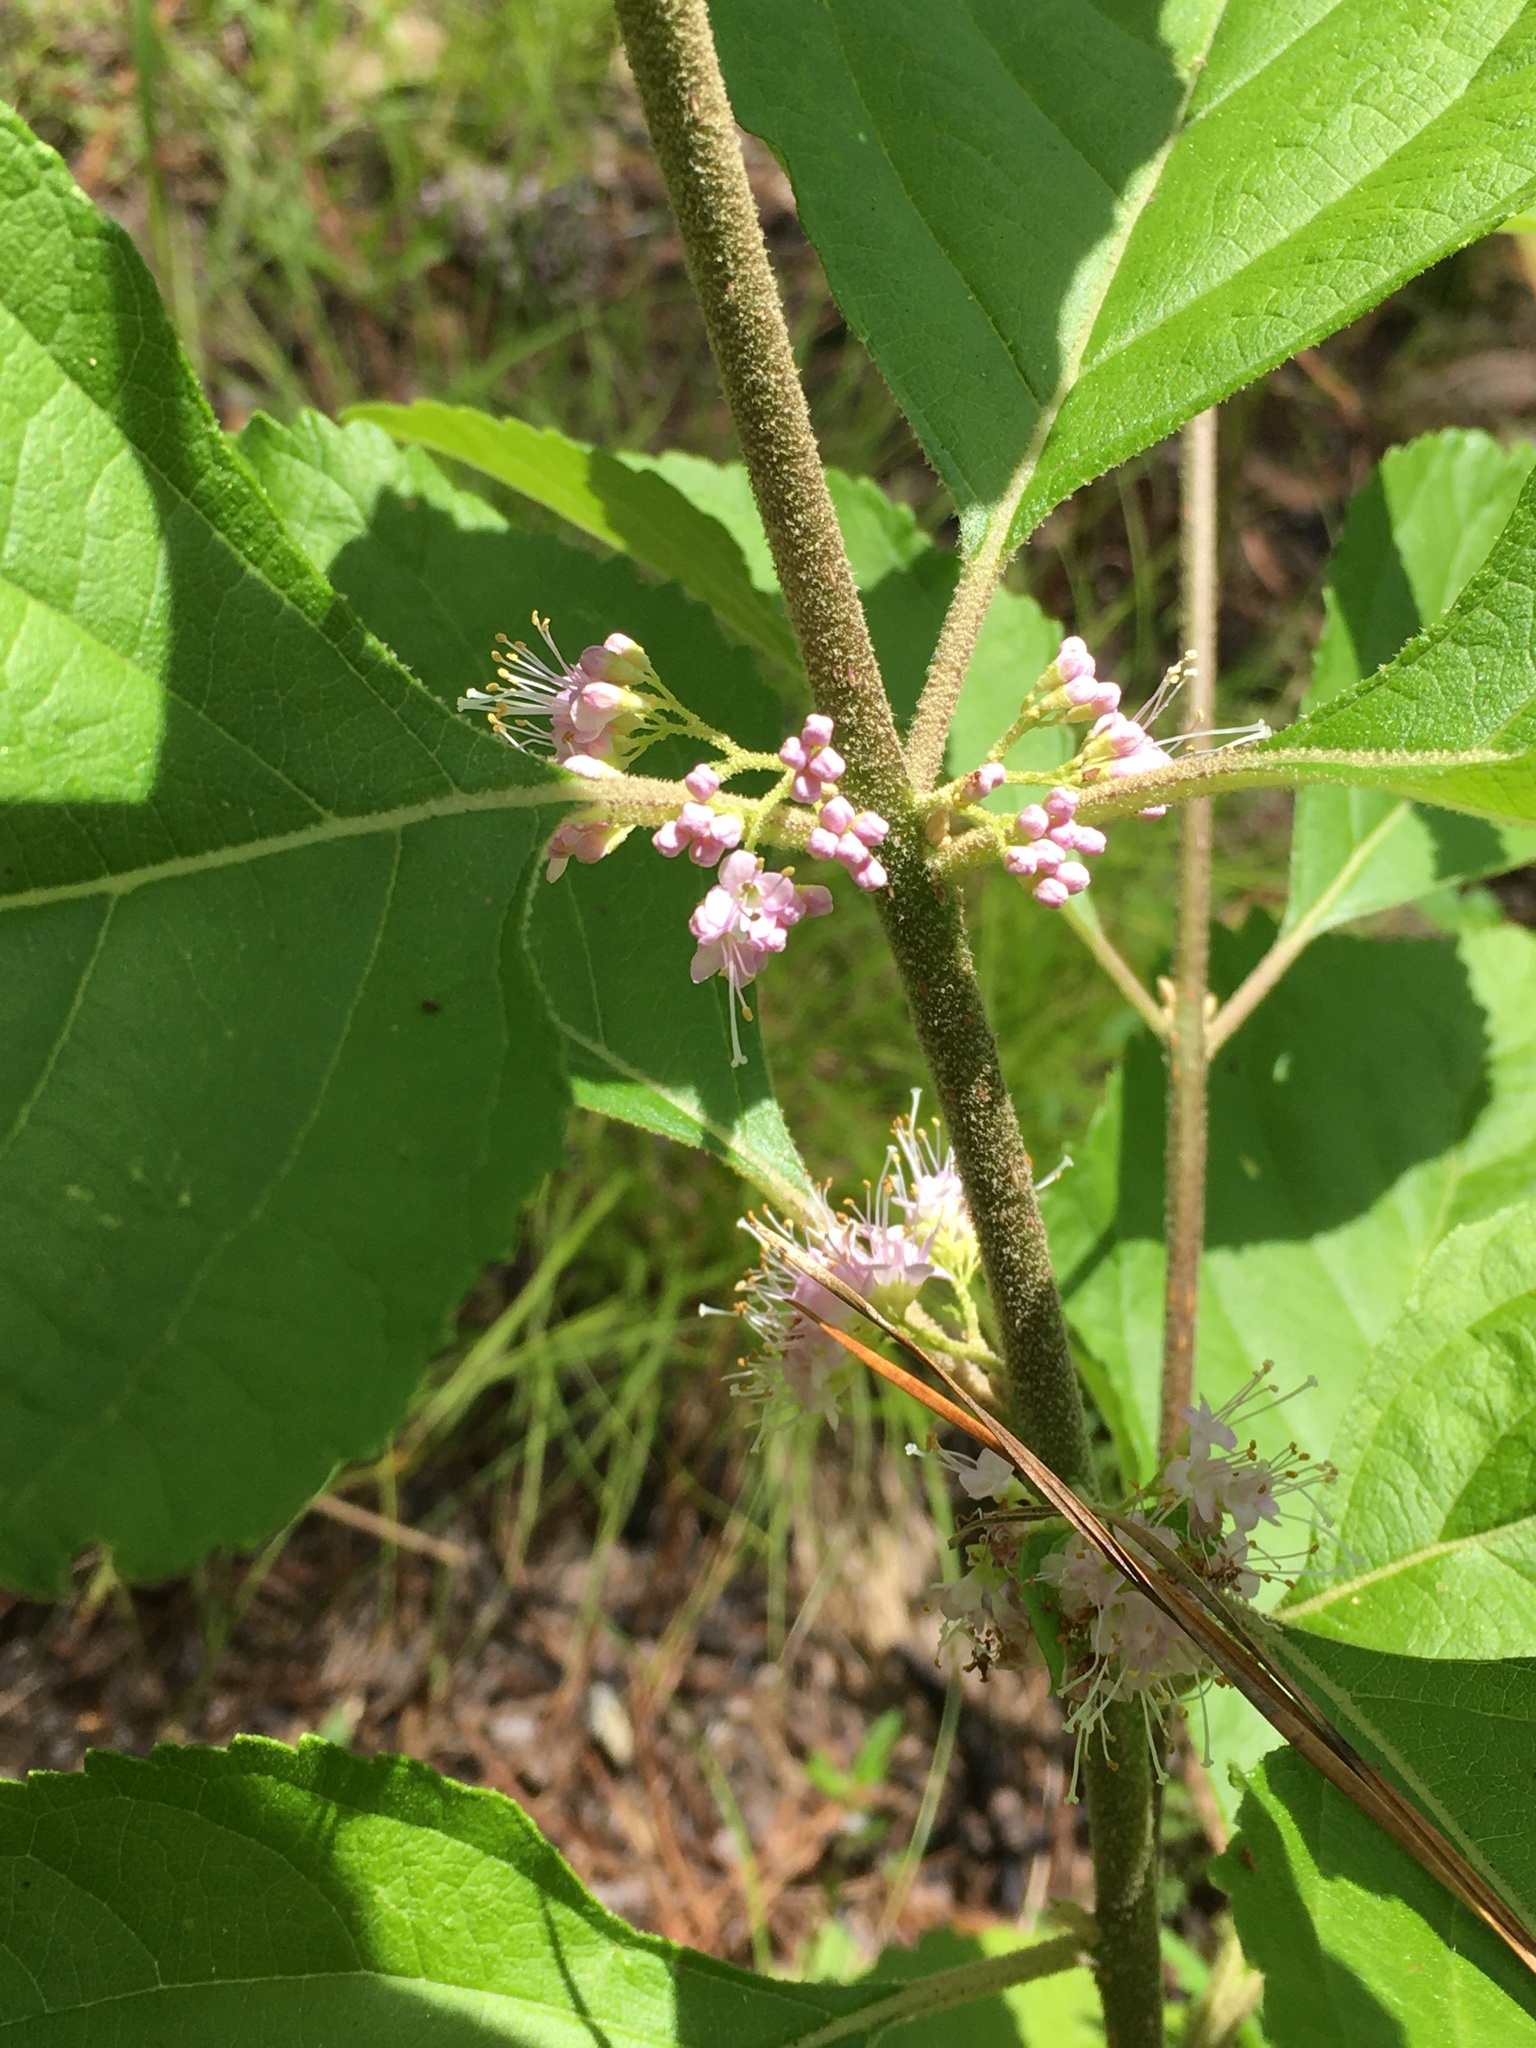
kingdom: Plantae
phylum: Tracheophyta
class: Magnoliopsida
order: Lamiales
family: Lamiaceae
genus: Callicarpa
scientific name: Callicarpa americana
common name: American beautyberry
